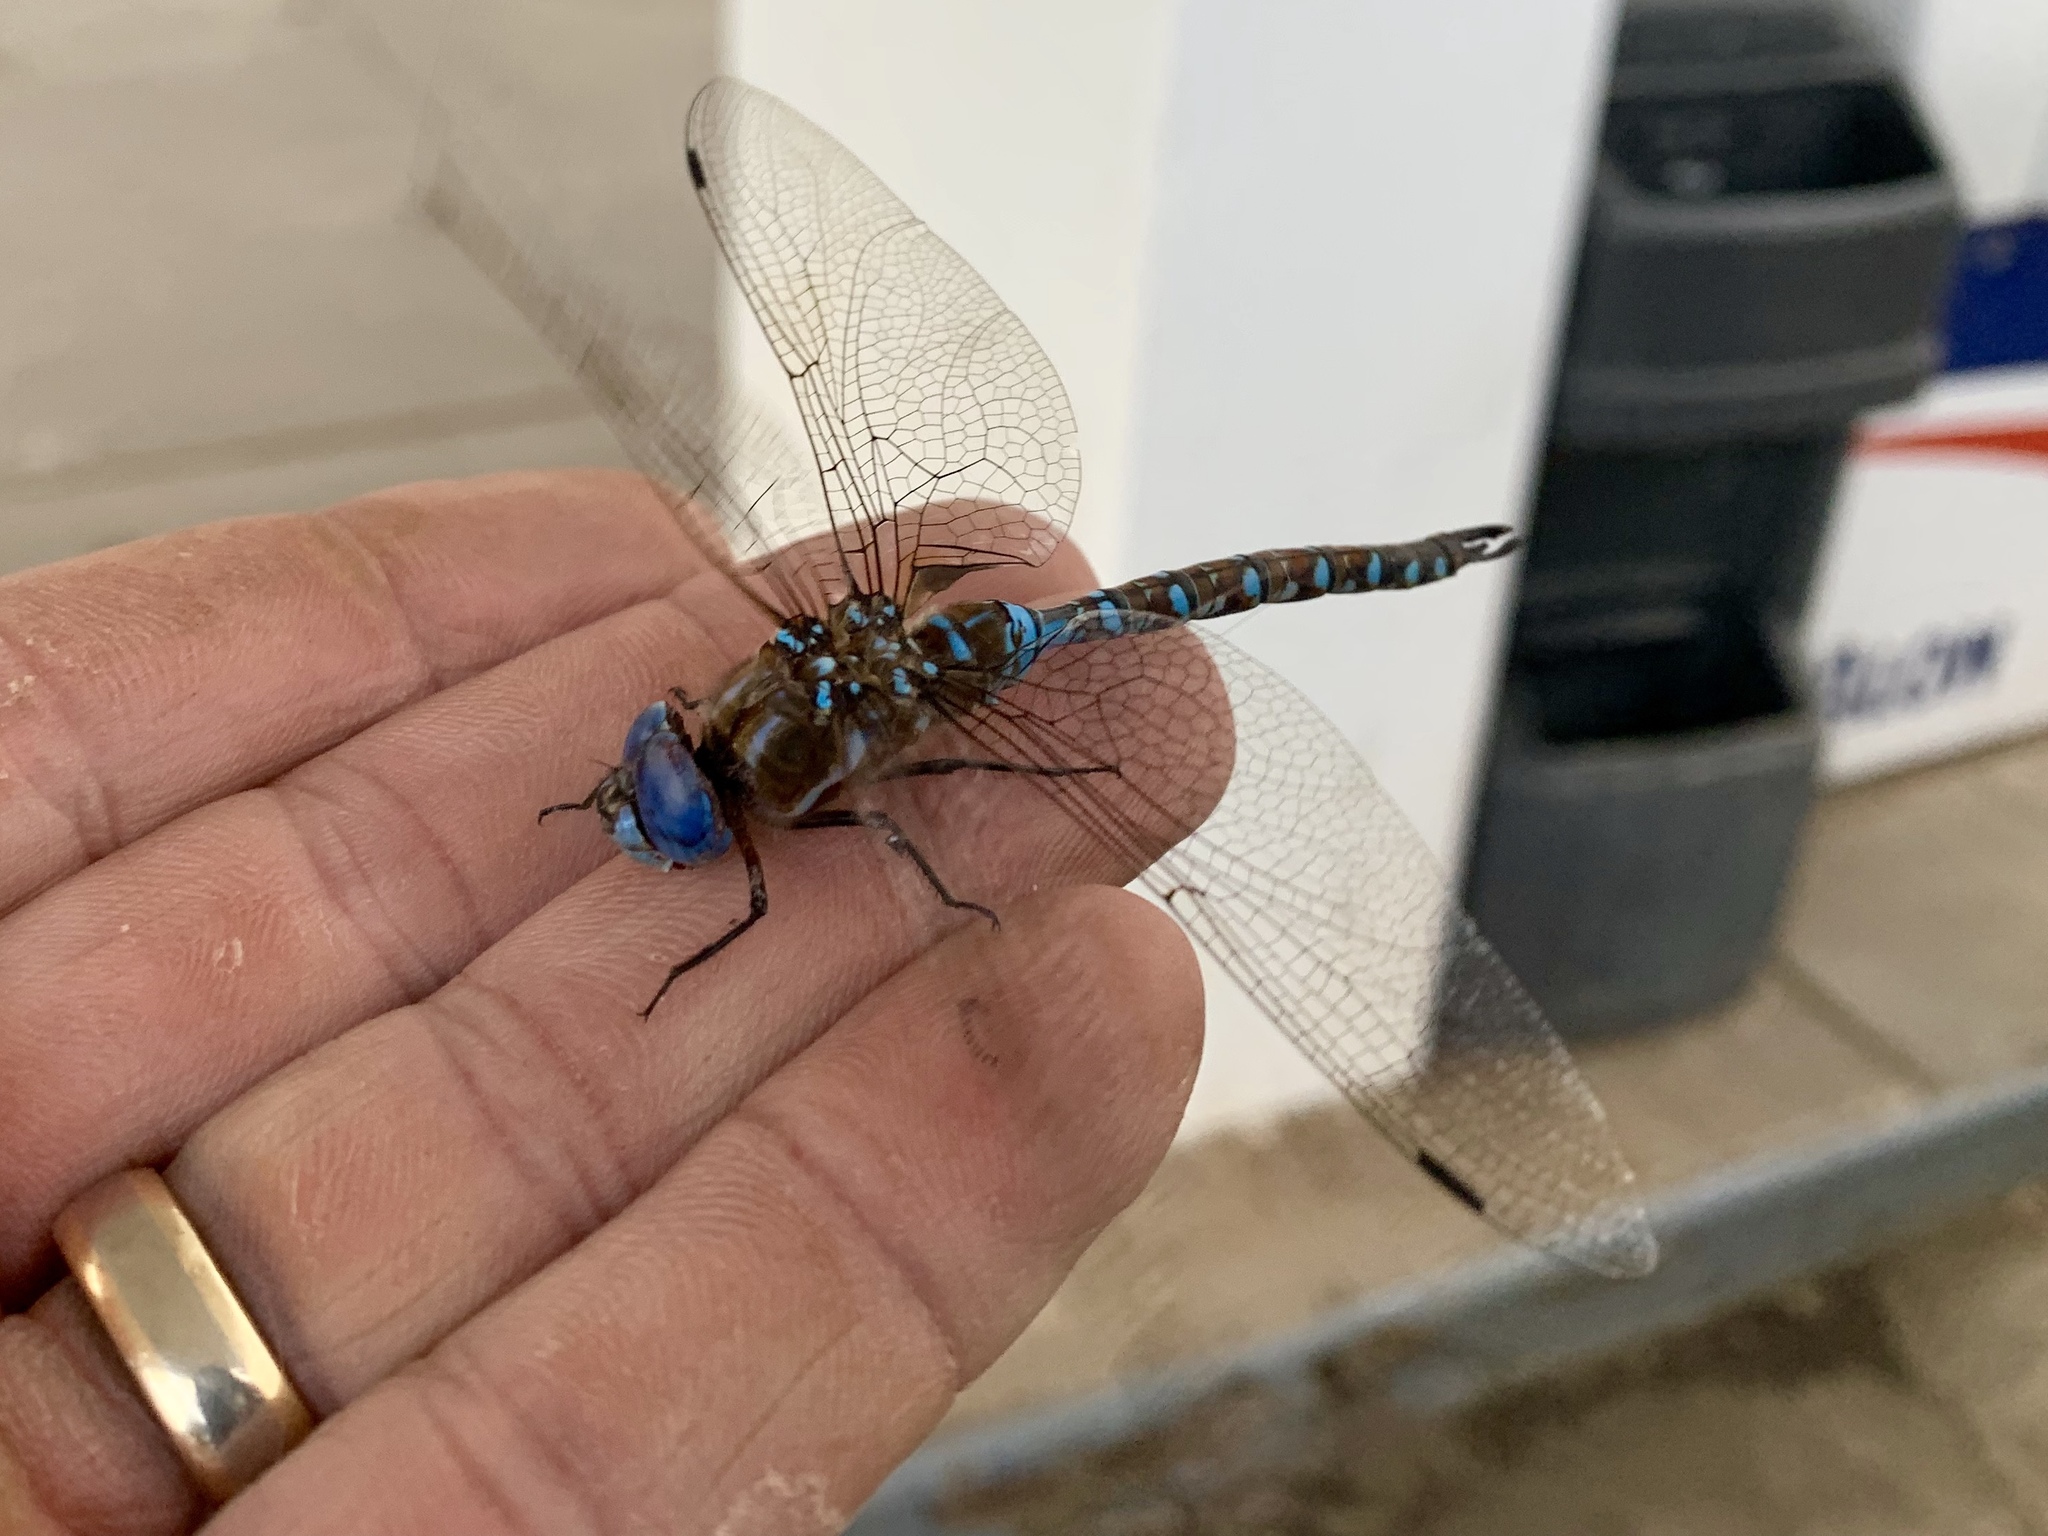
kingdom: Animalia
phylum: Arthropoda
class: Insecta
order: Odonata
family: Aeshnidae
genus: Rhionaeschna
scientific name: Rhionaeschna multicolor
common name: Blue-eyed darner
